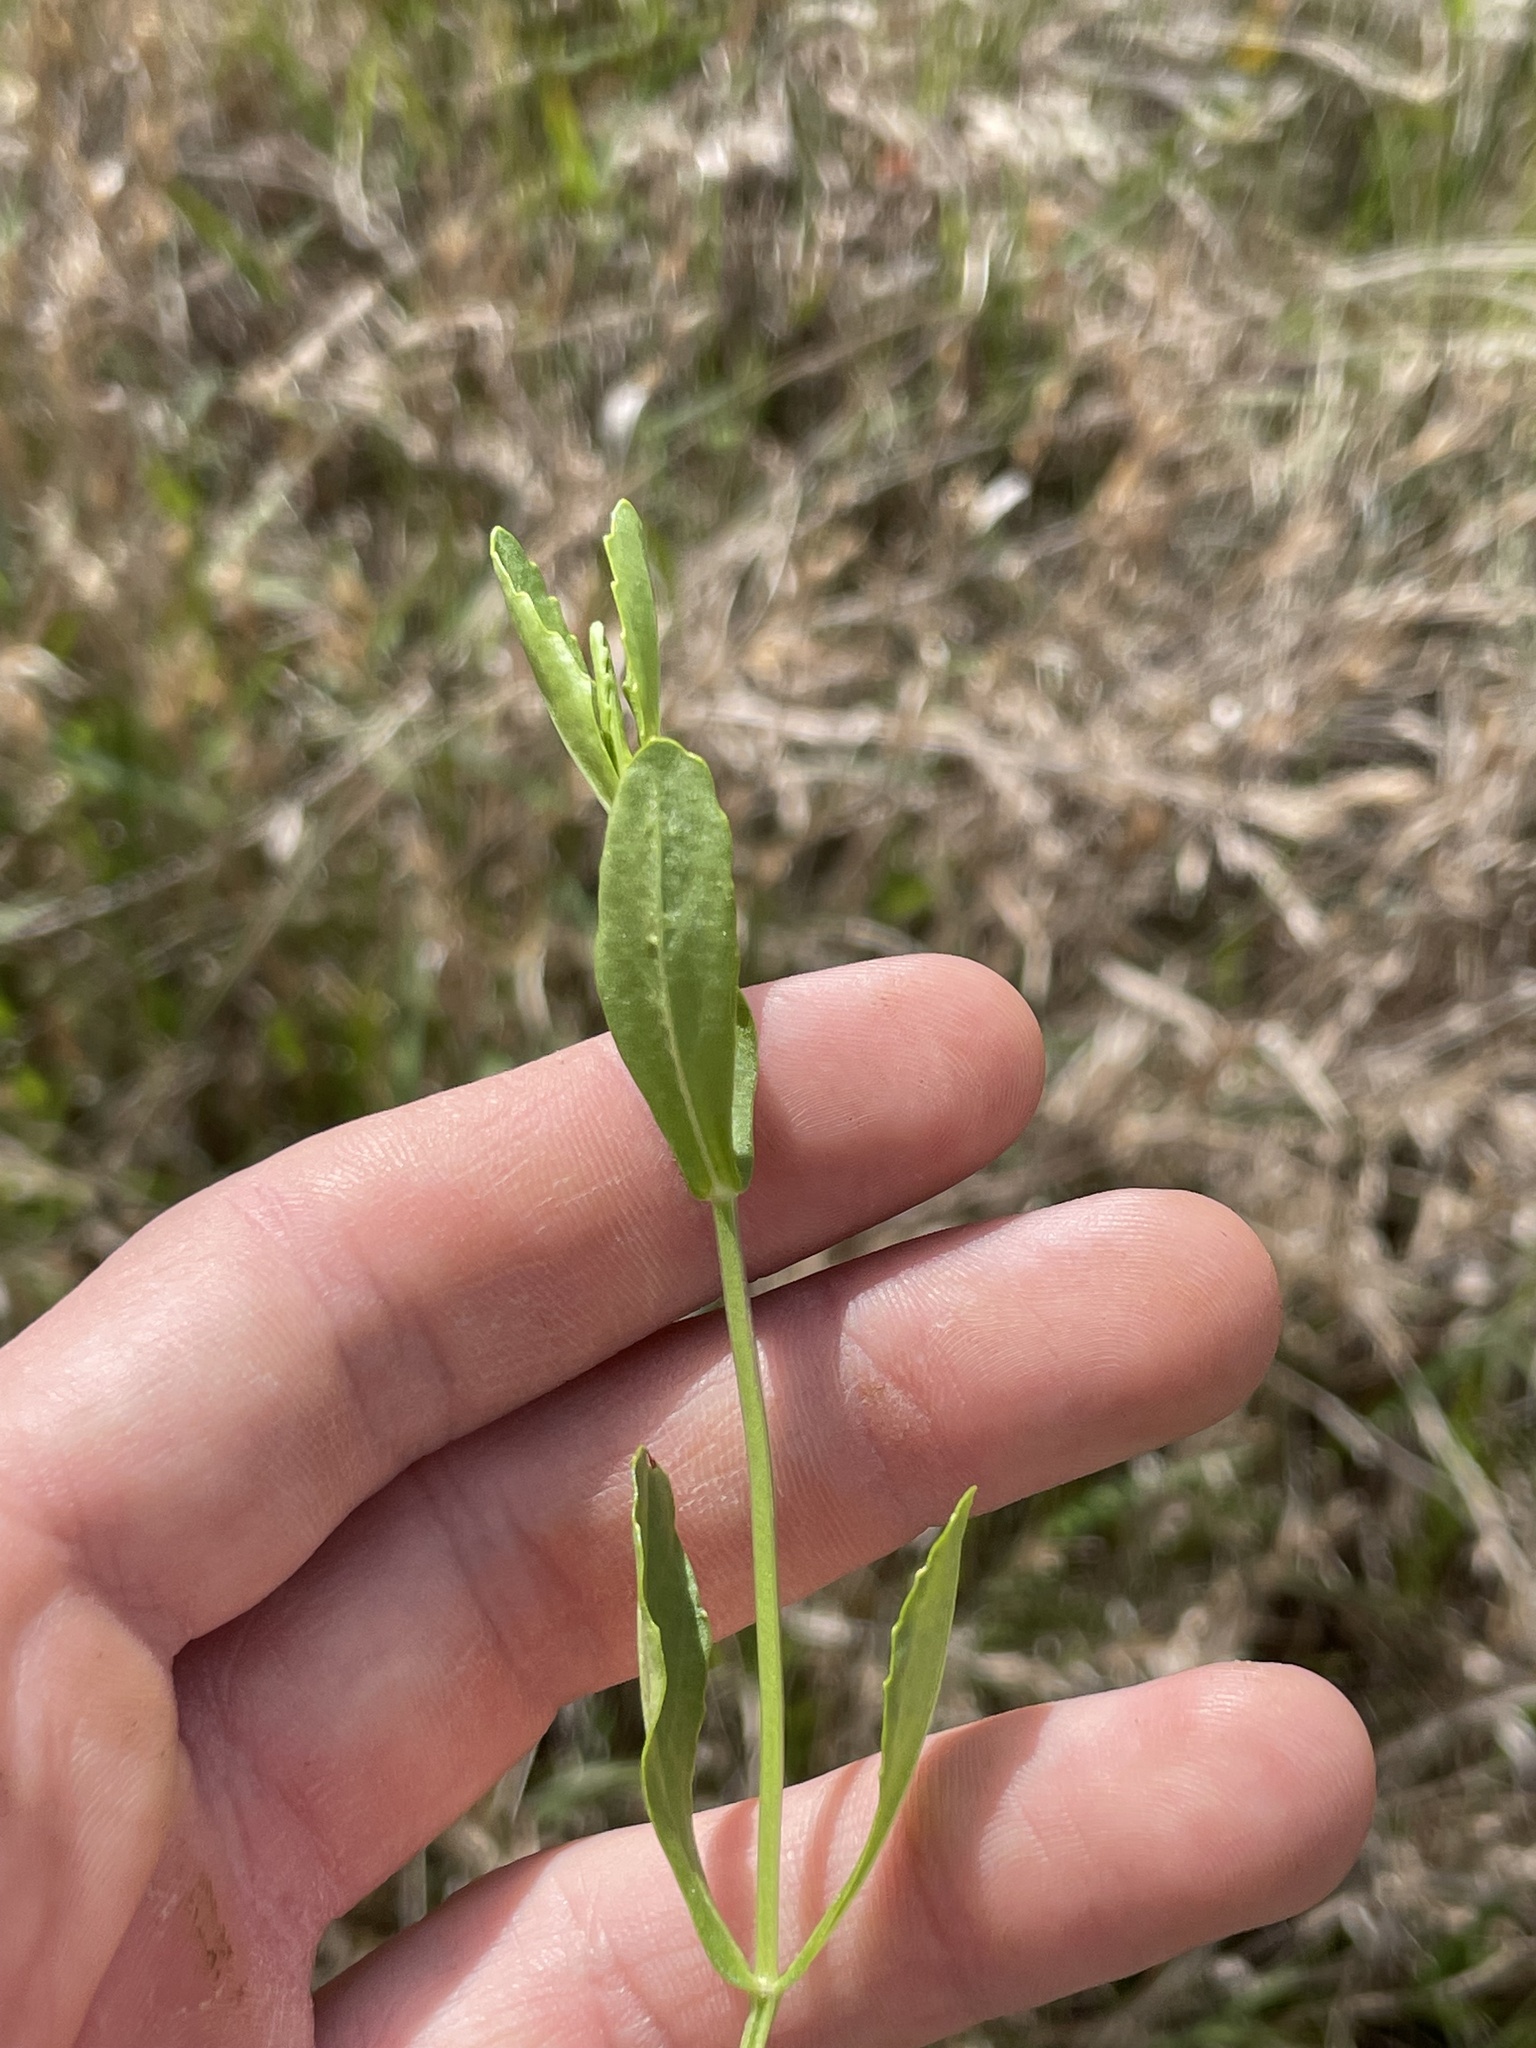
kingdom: Plantae
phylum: Tracheophyta
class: Magnoliopsida
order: Lamiales
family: Lamiaceae
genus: Physostegia
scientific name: Physostegia purpurea
